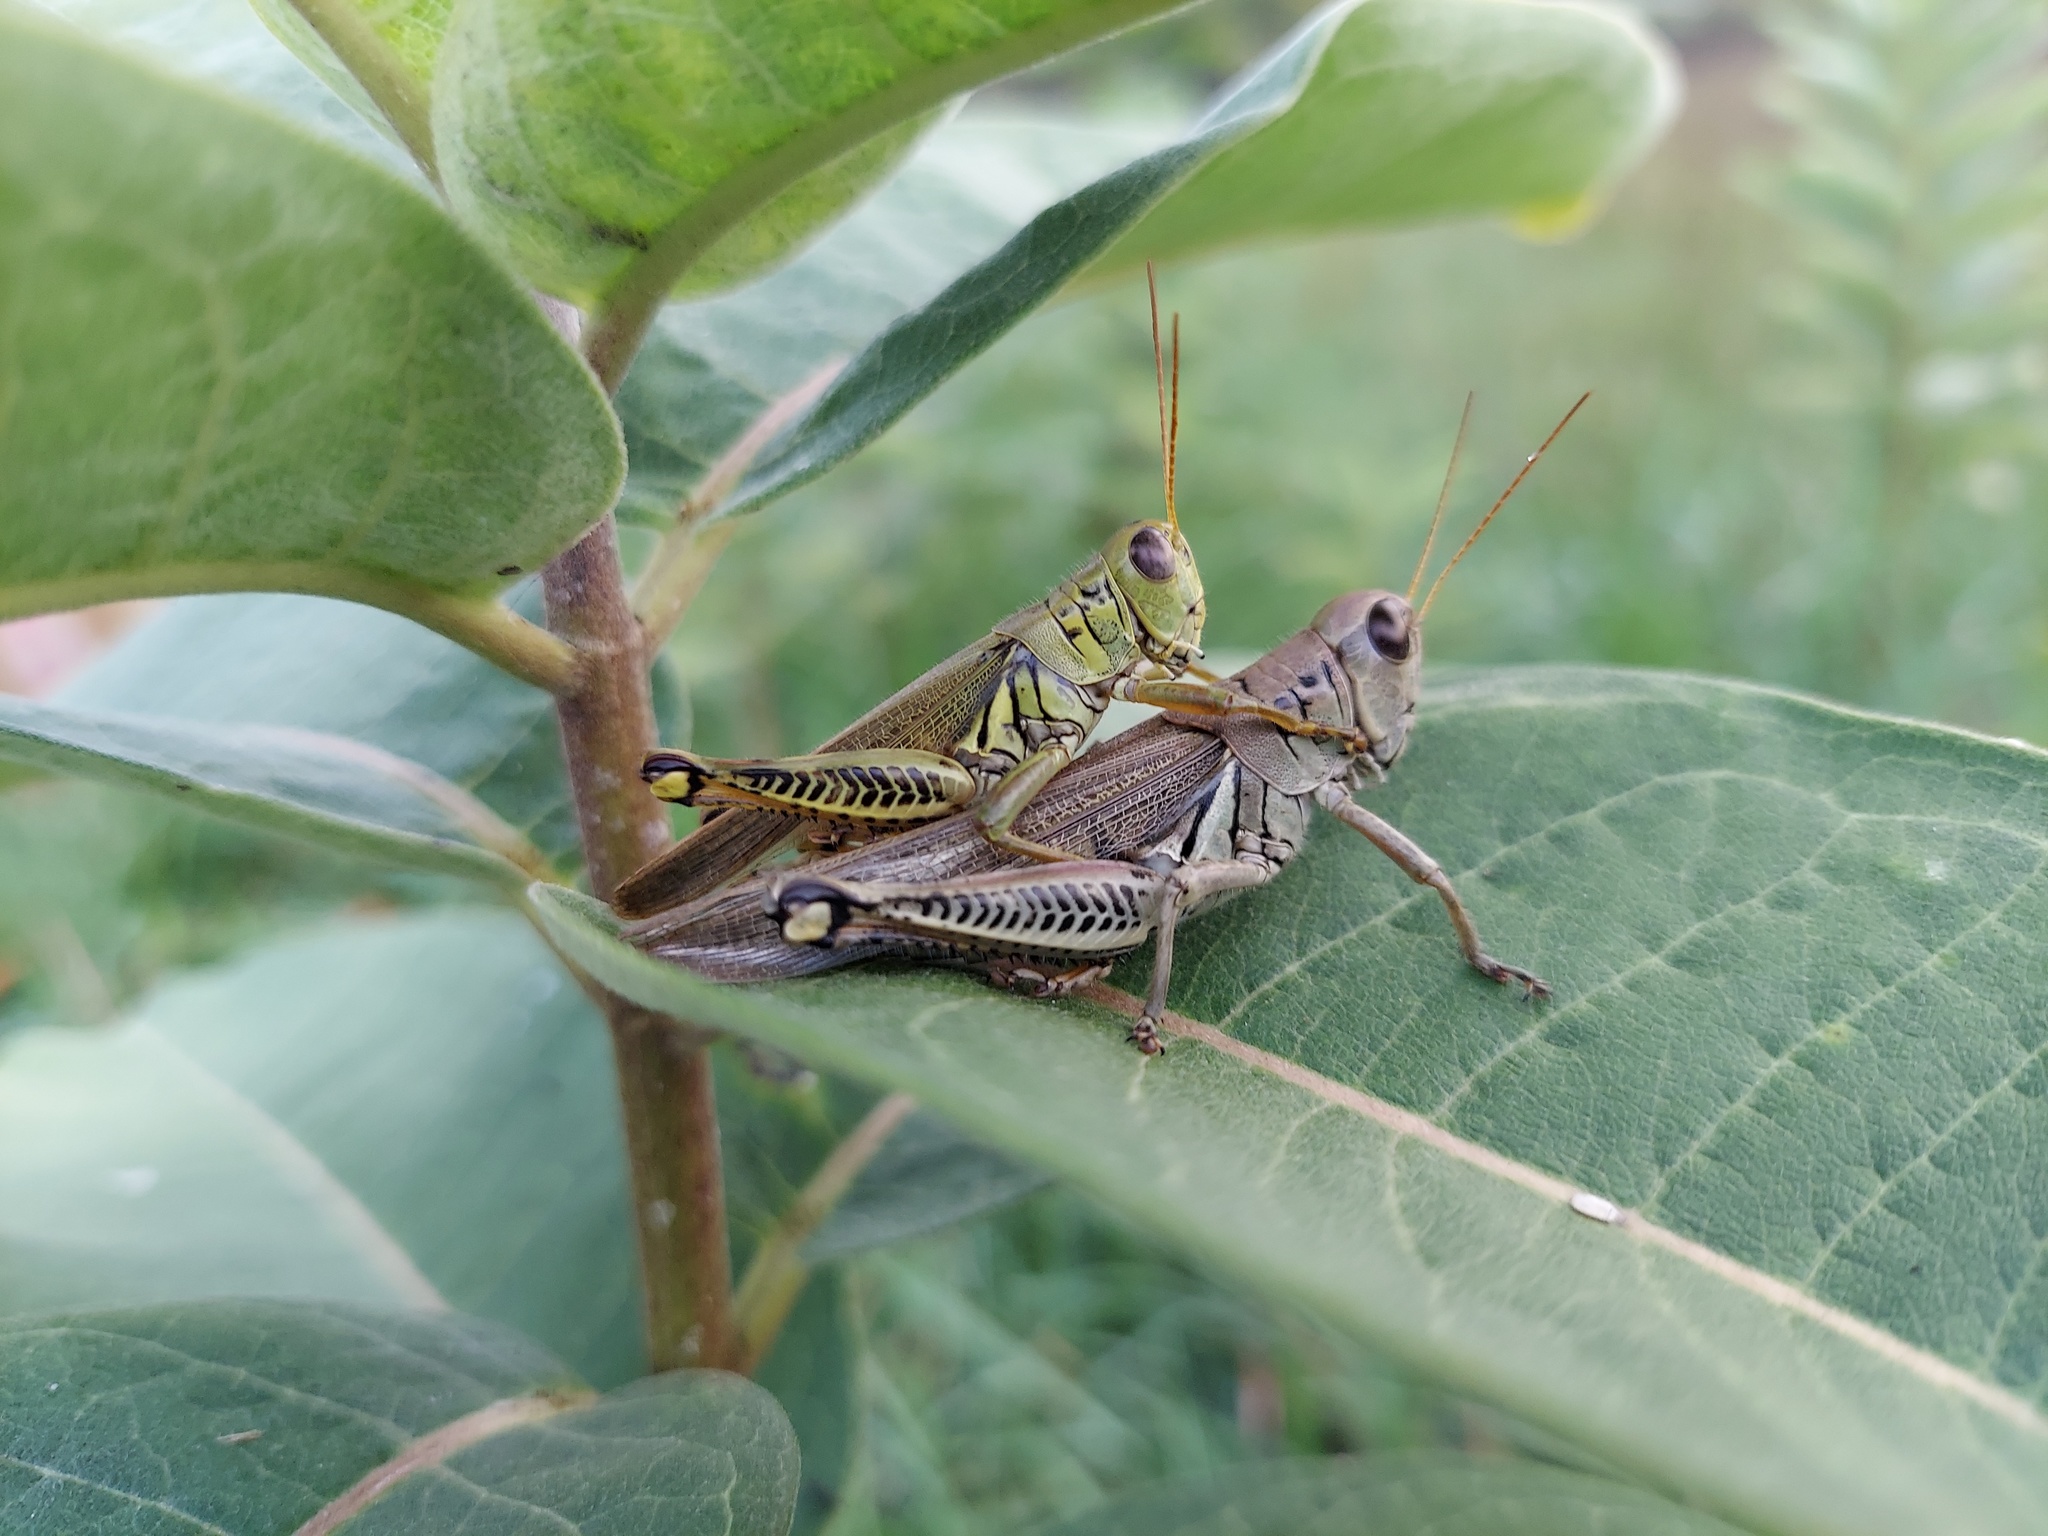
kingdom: Animalia
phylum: Arthropoda
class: Insecta
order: Orthoptera
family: Acrididae
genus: Melanoplus
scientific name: Melanoplus differentialis
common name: Differential grasshopper
